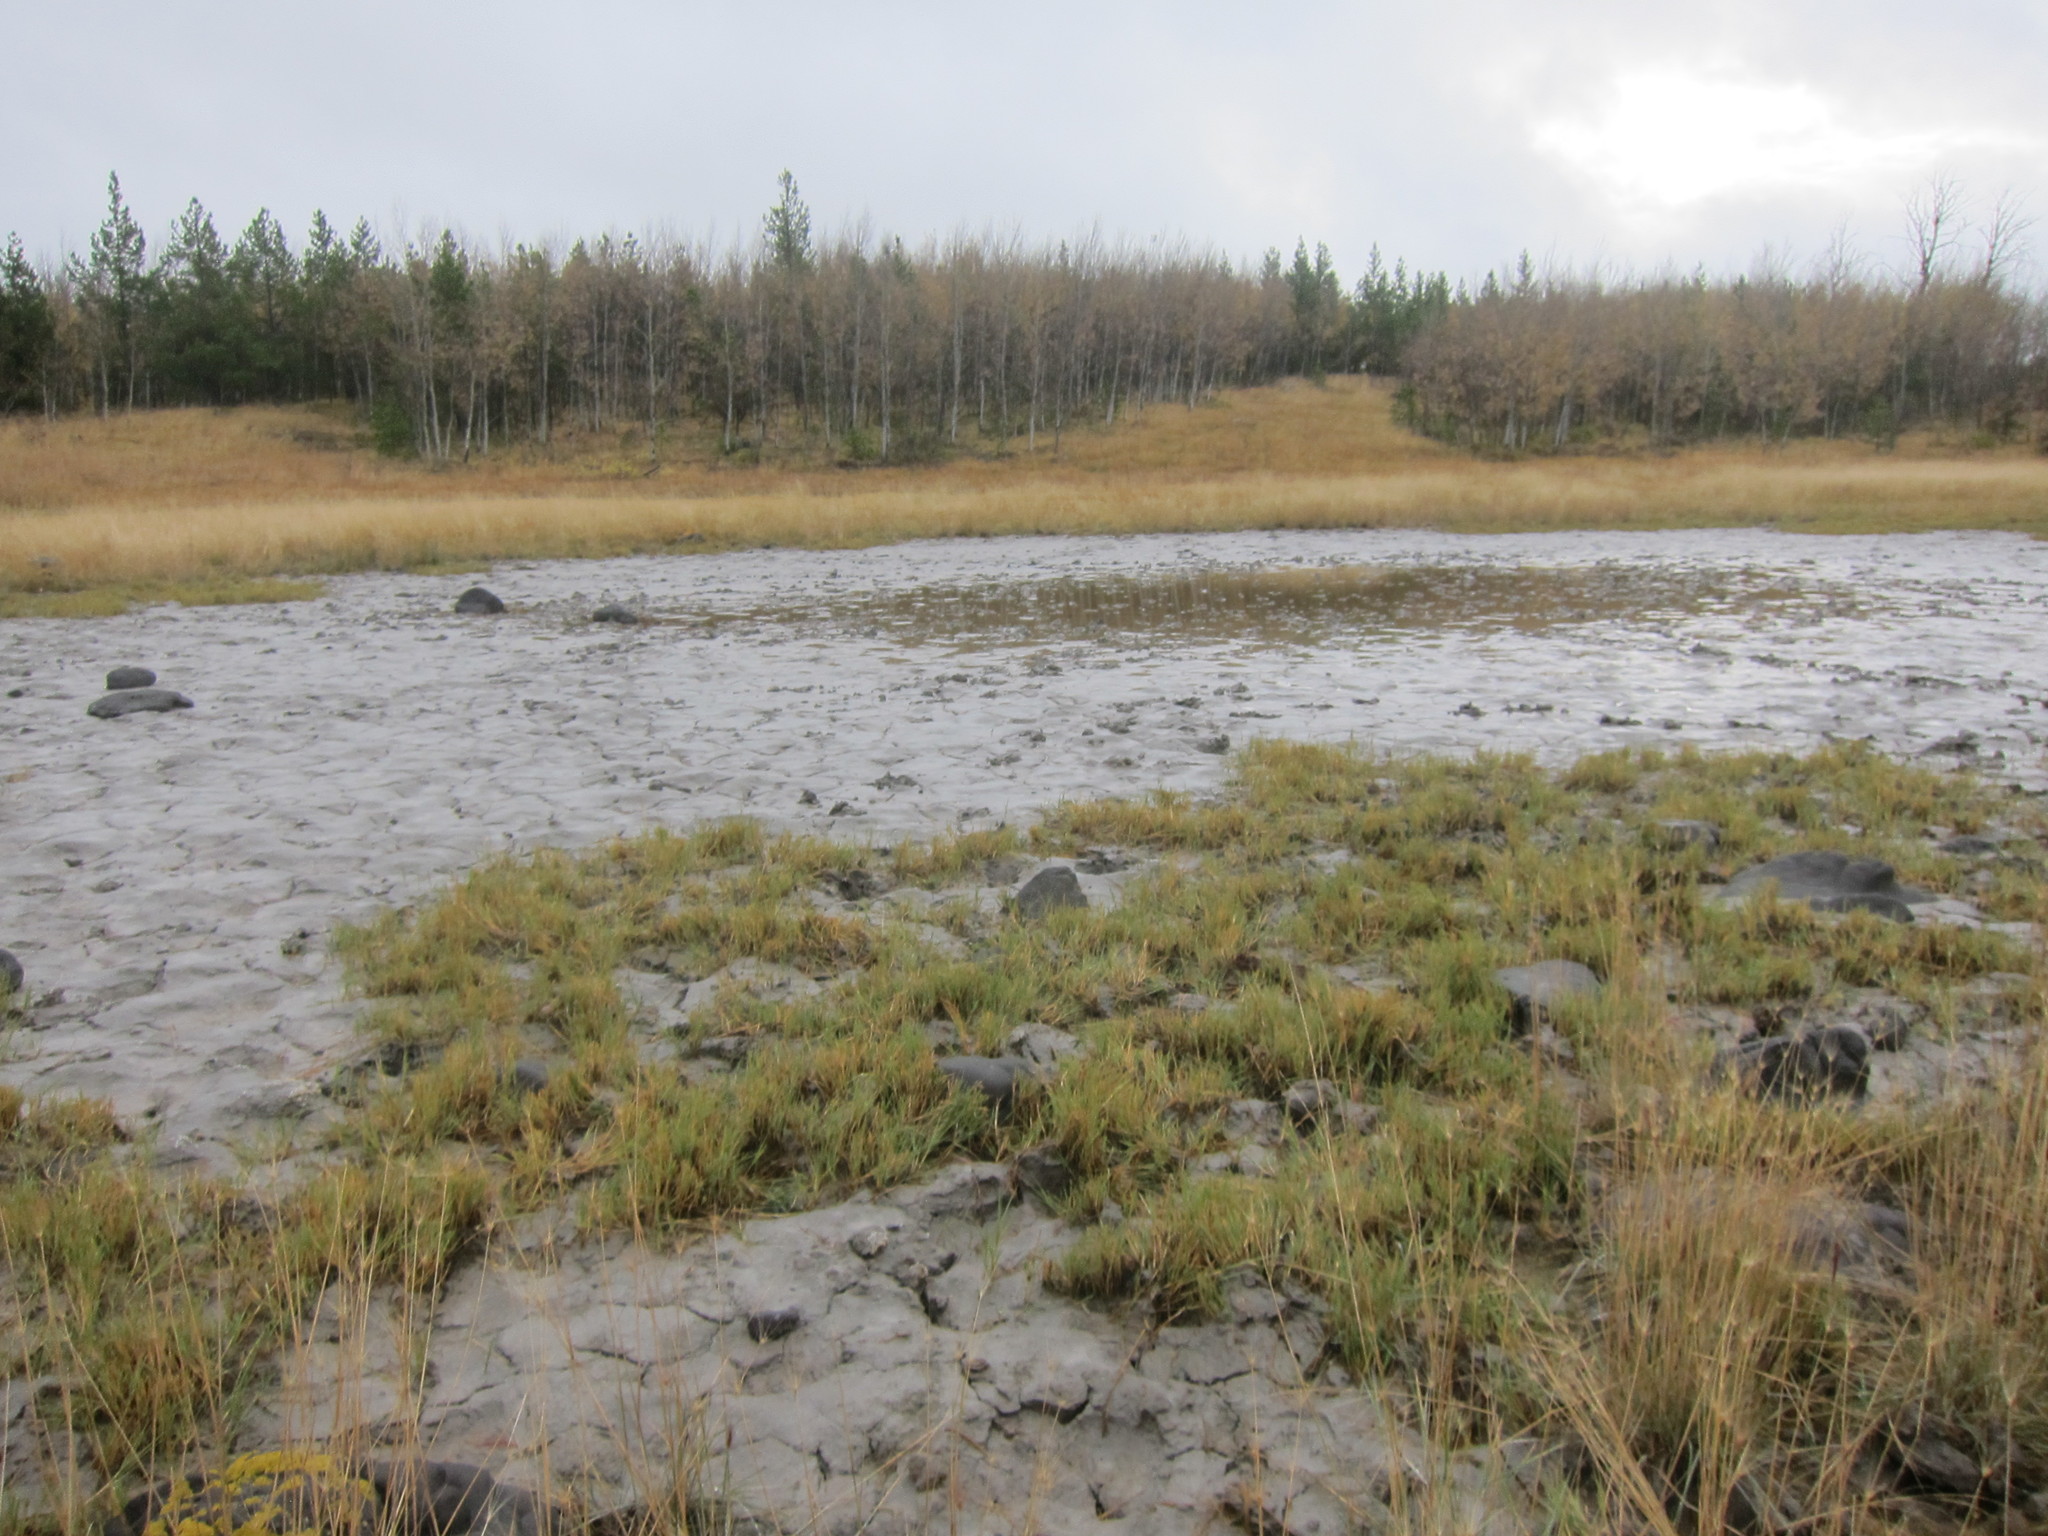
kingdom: Plantae
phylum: Tracheophyta
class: Liliopsida
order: Poales
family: Poaceae
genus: Distichlis
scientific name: Distichlis spicata
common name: Saltgrass
